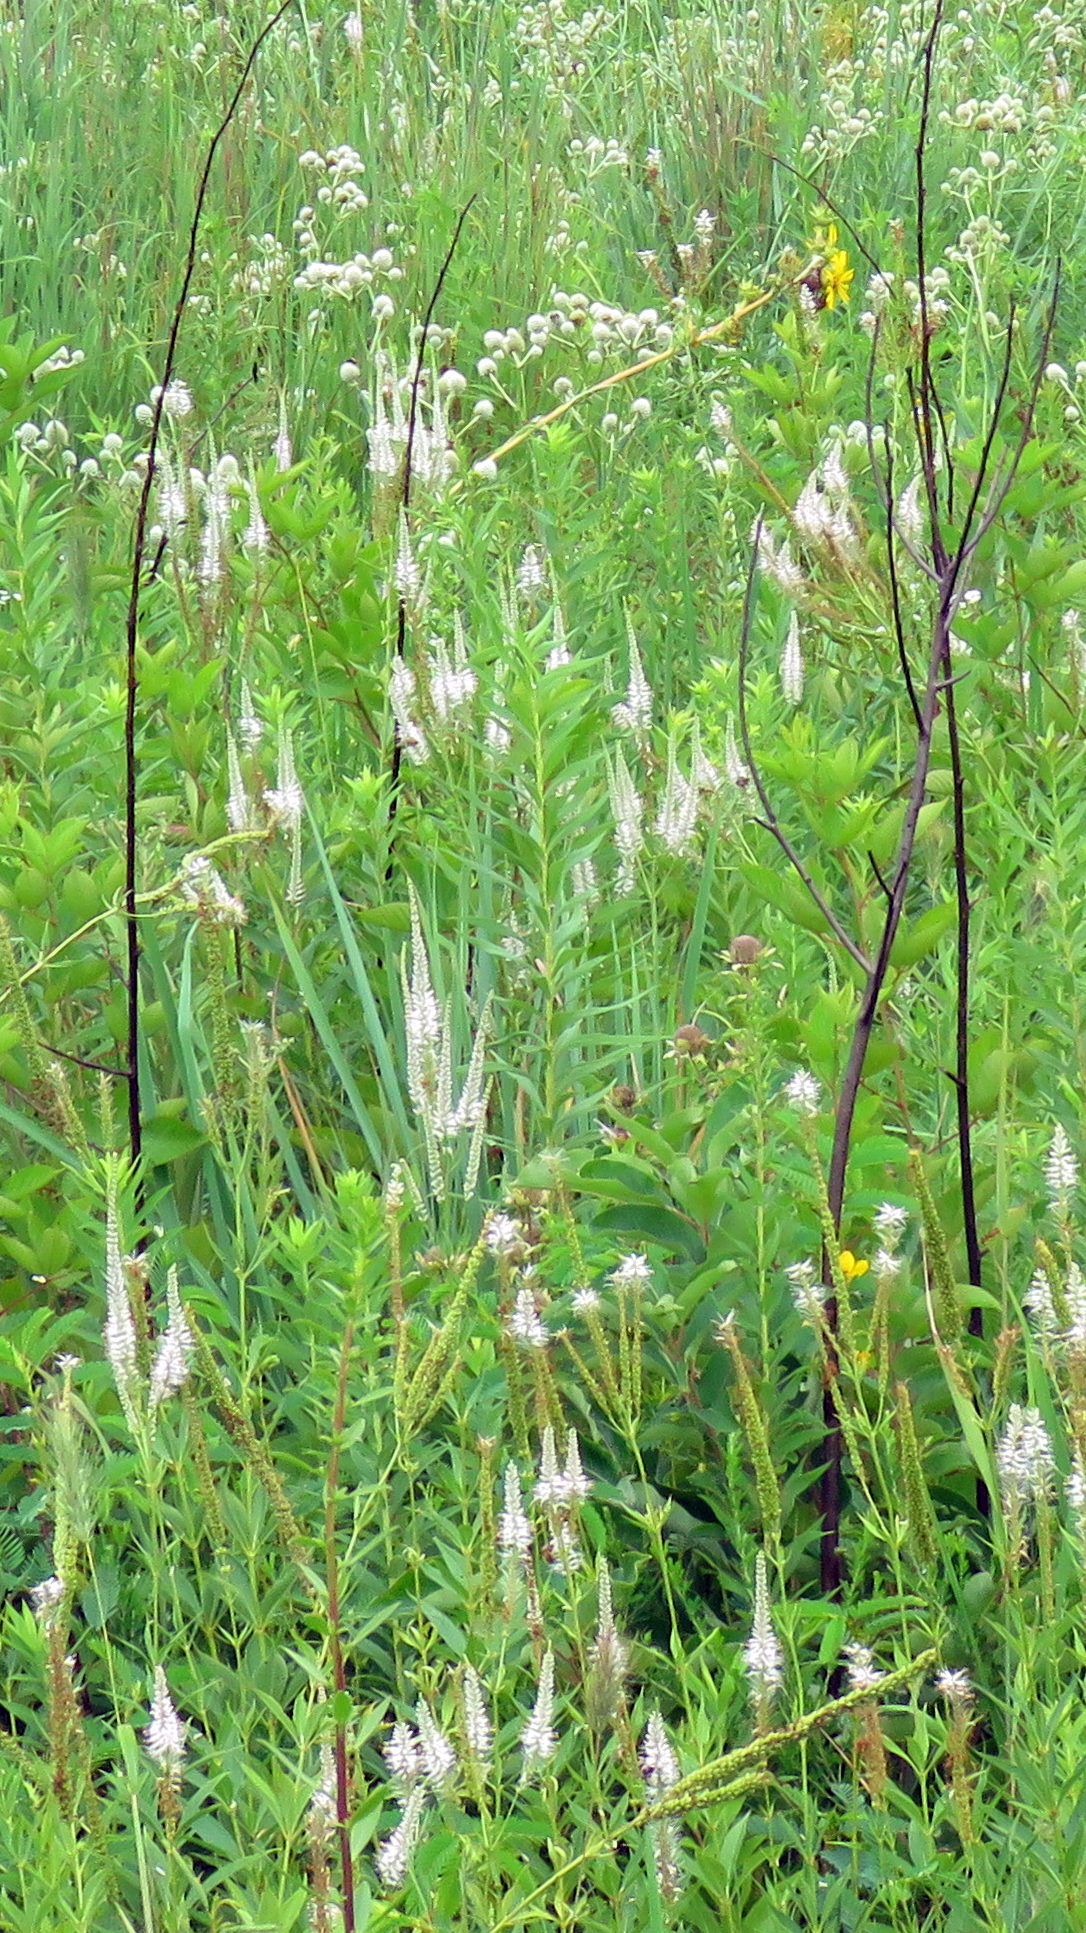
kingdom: Plantae
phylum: Tracheophyta
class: Magnoliopsida
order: Lamiales
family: Plantaginaceae
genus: Veronicastrum
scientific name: Veronicastrum virginicum
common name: Blackroot
